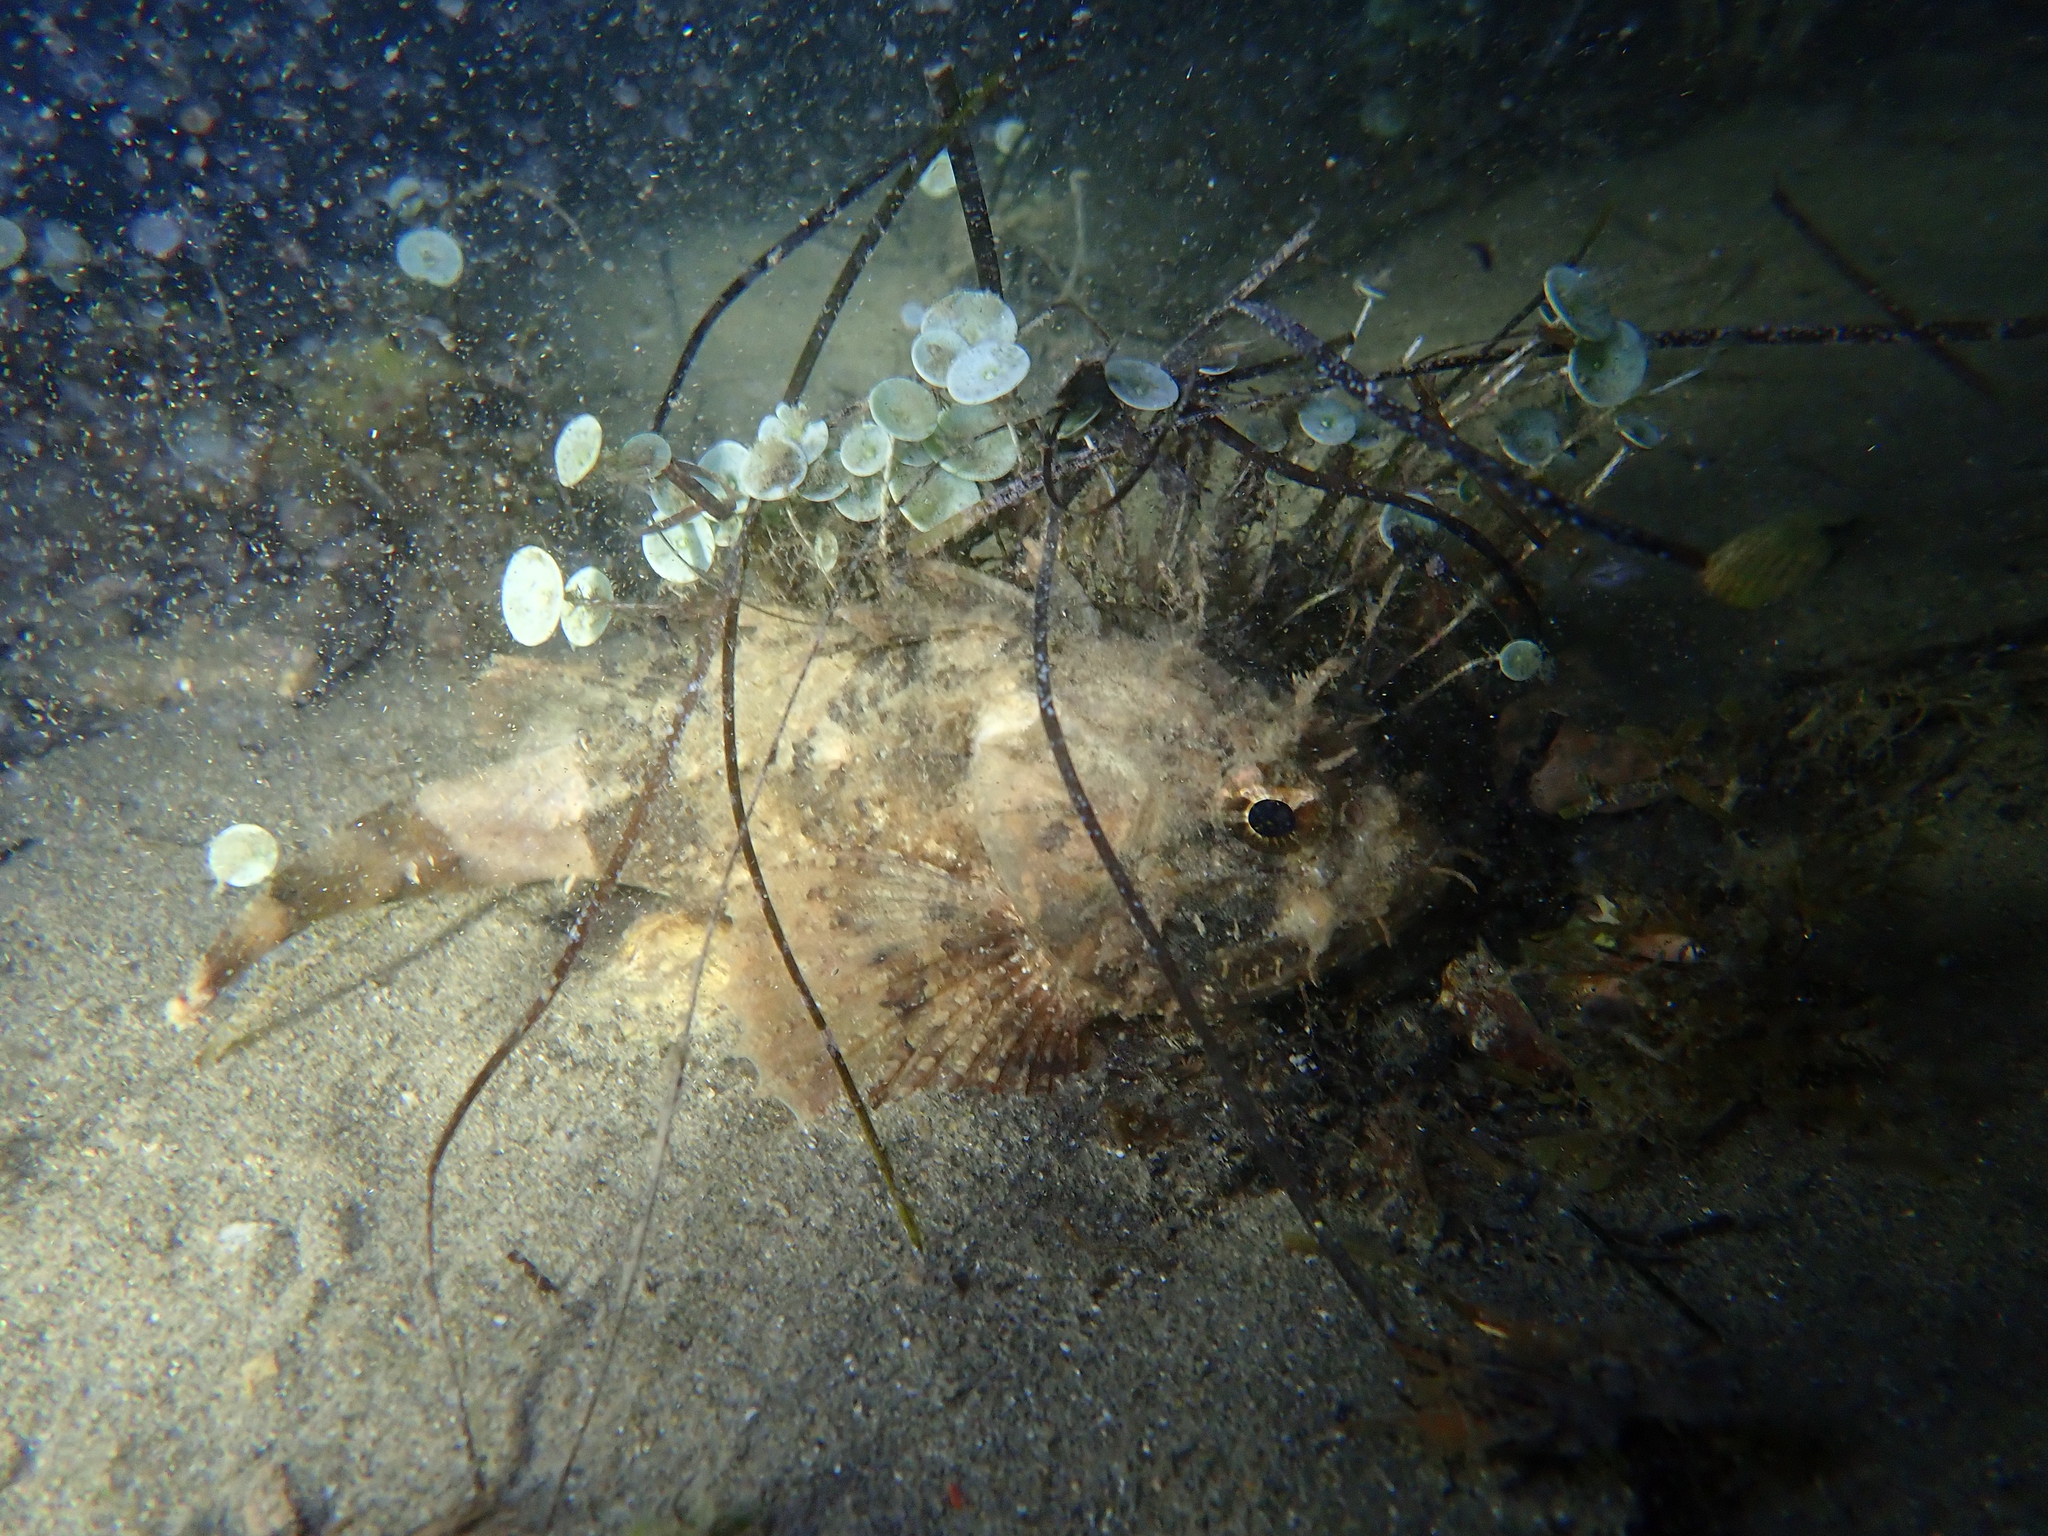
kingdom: Animalia
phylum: Chordata
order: Scorpaeniformes
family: Scorpaenidae
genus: Scorpaena
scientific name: Scorpaena porcus
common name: Black scorpionfish
